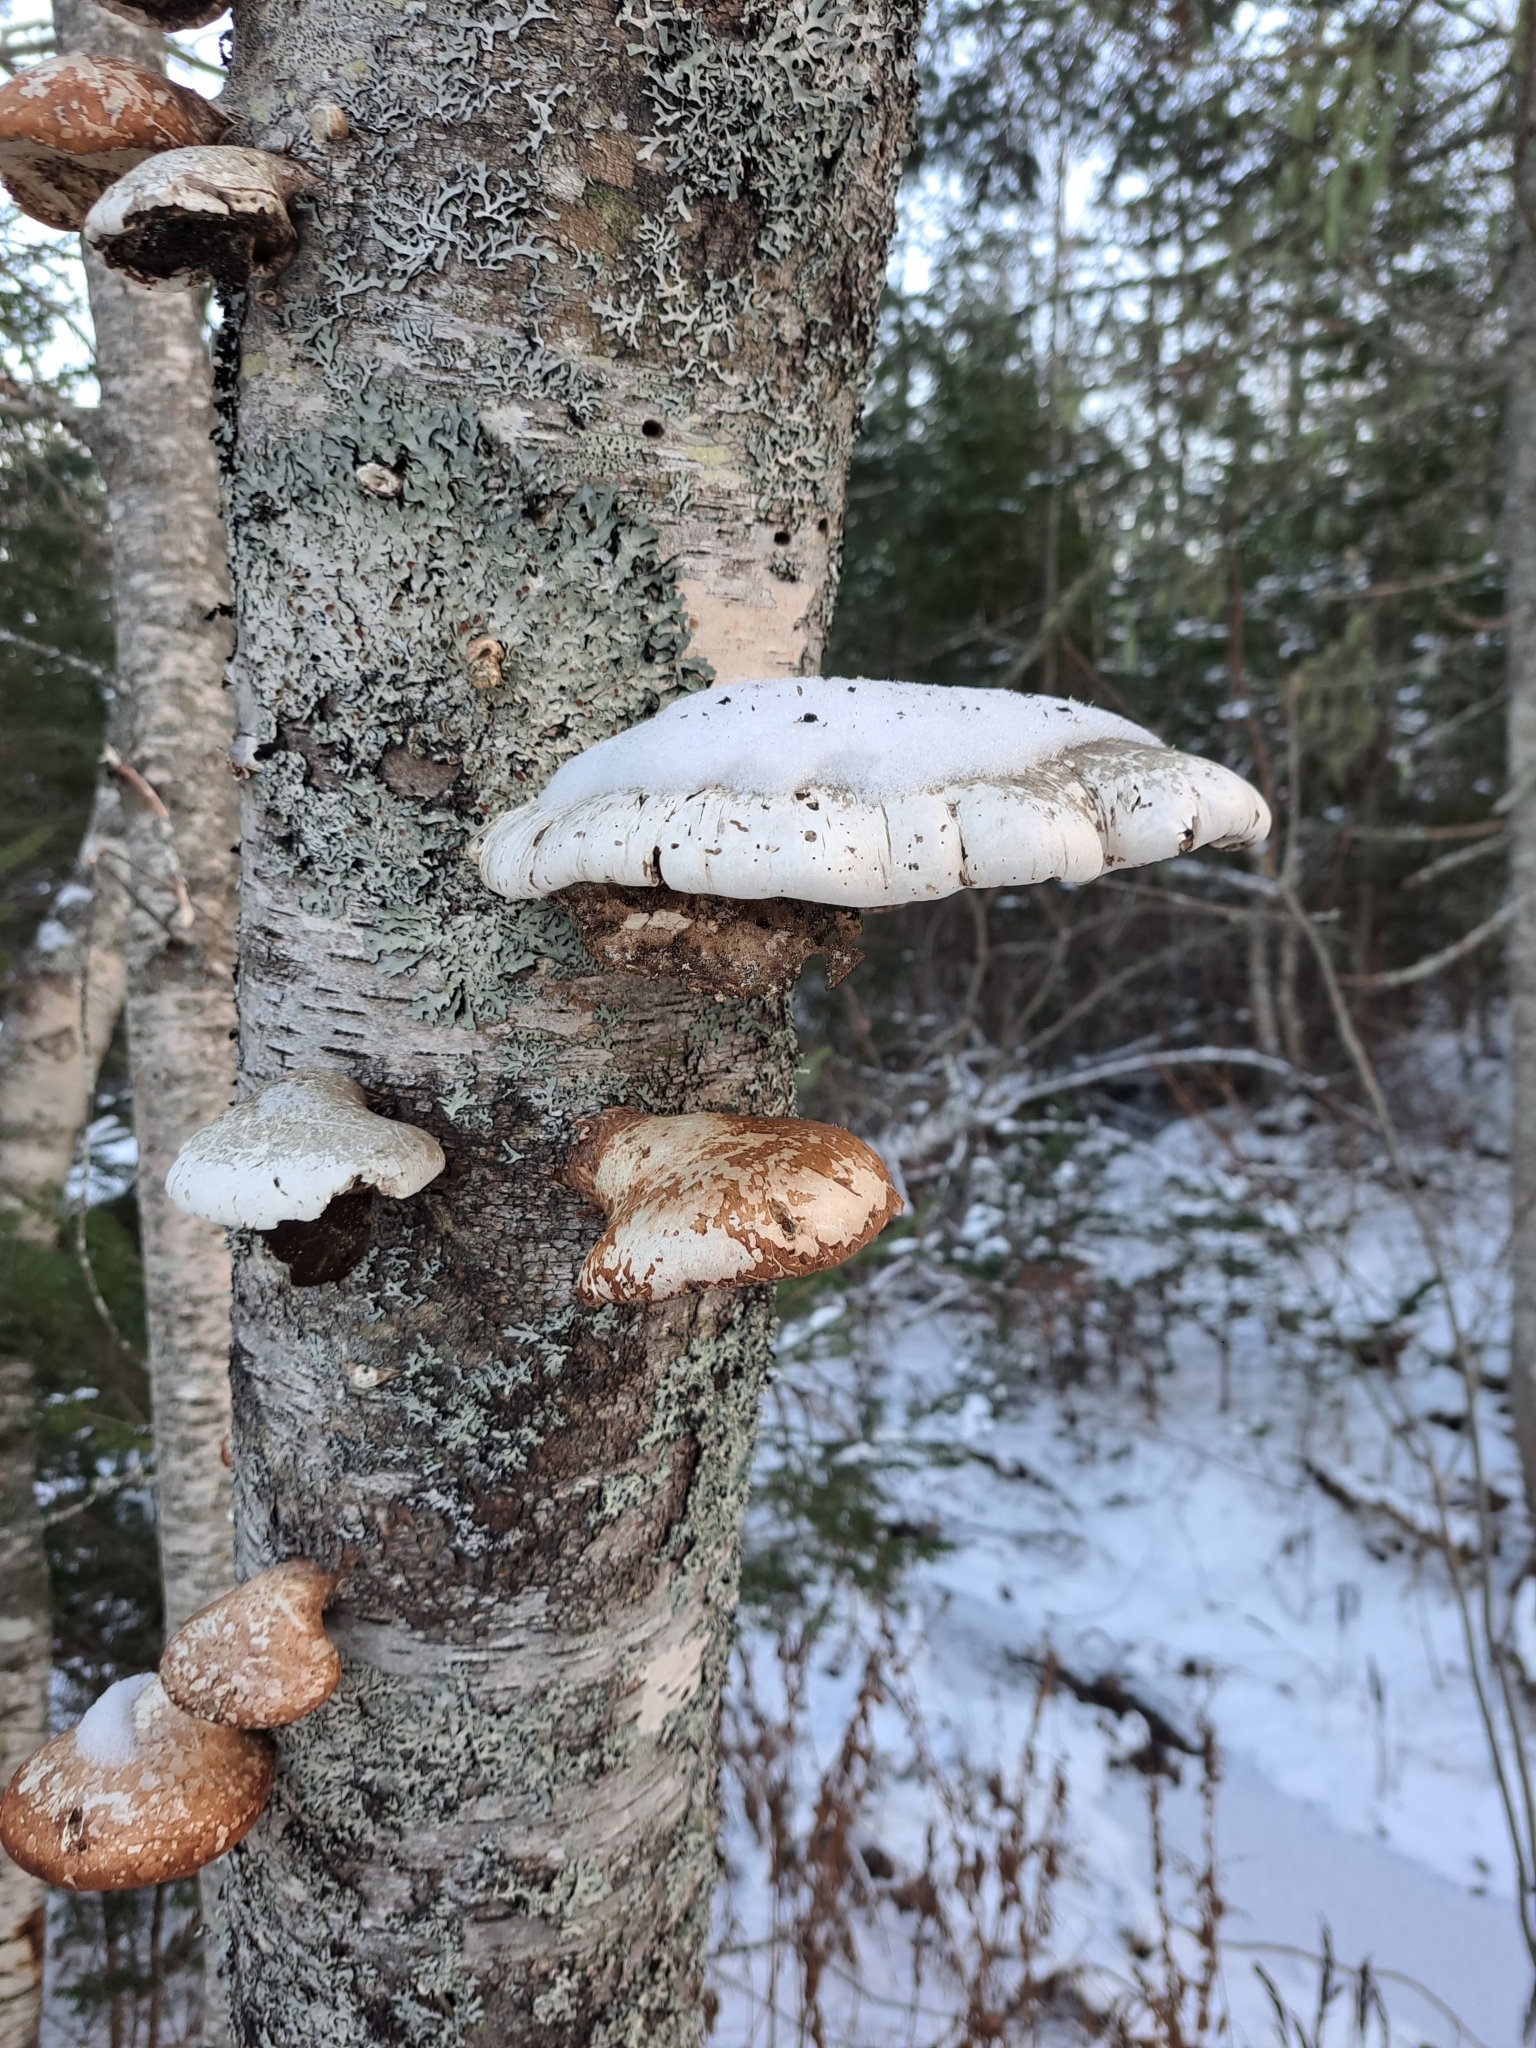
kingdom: Fungi
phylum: Basidiomycota
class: Agaricomycetes
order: Polyporales
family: Fomitopsidaceae
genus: Fomitopsis
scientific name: Fomitopsis betulina
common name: Birch polypore
